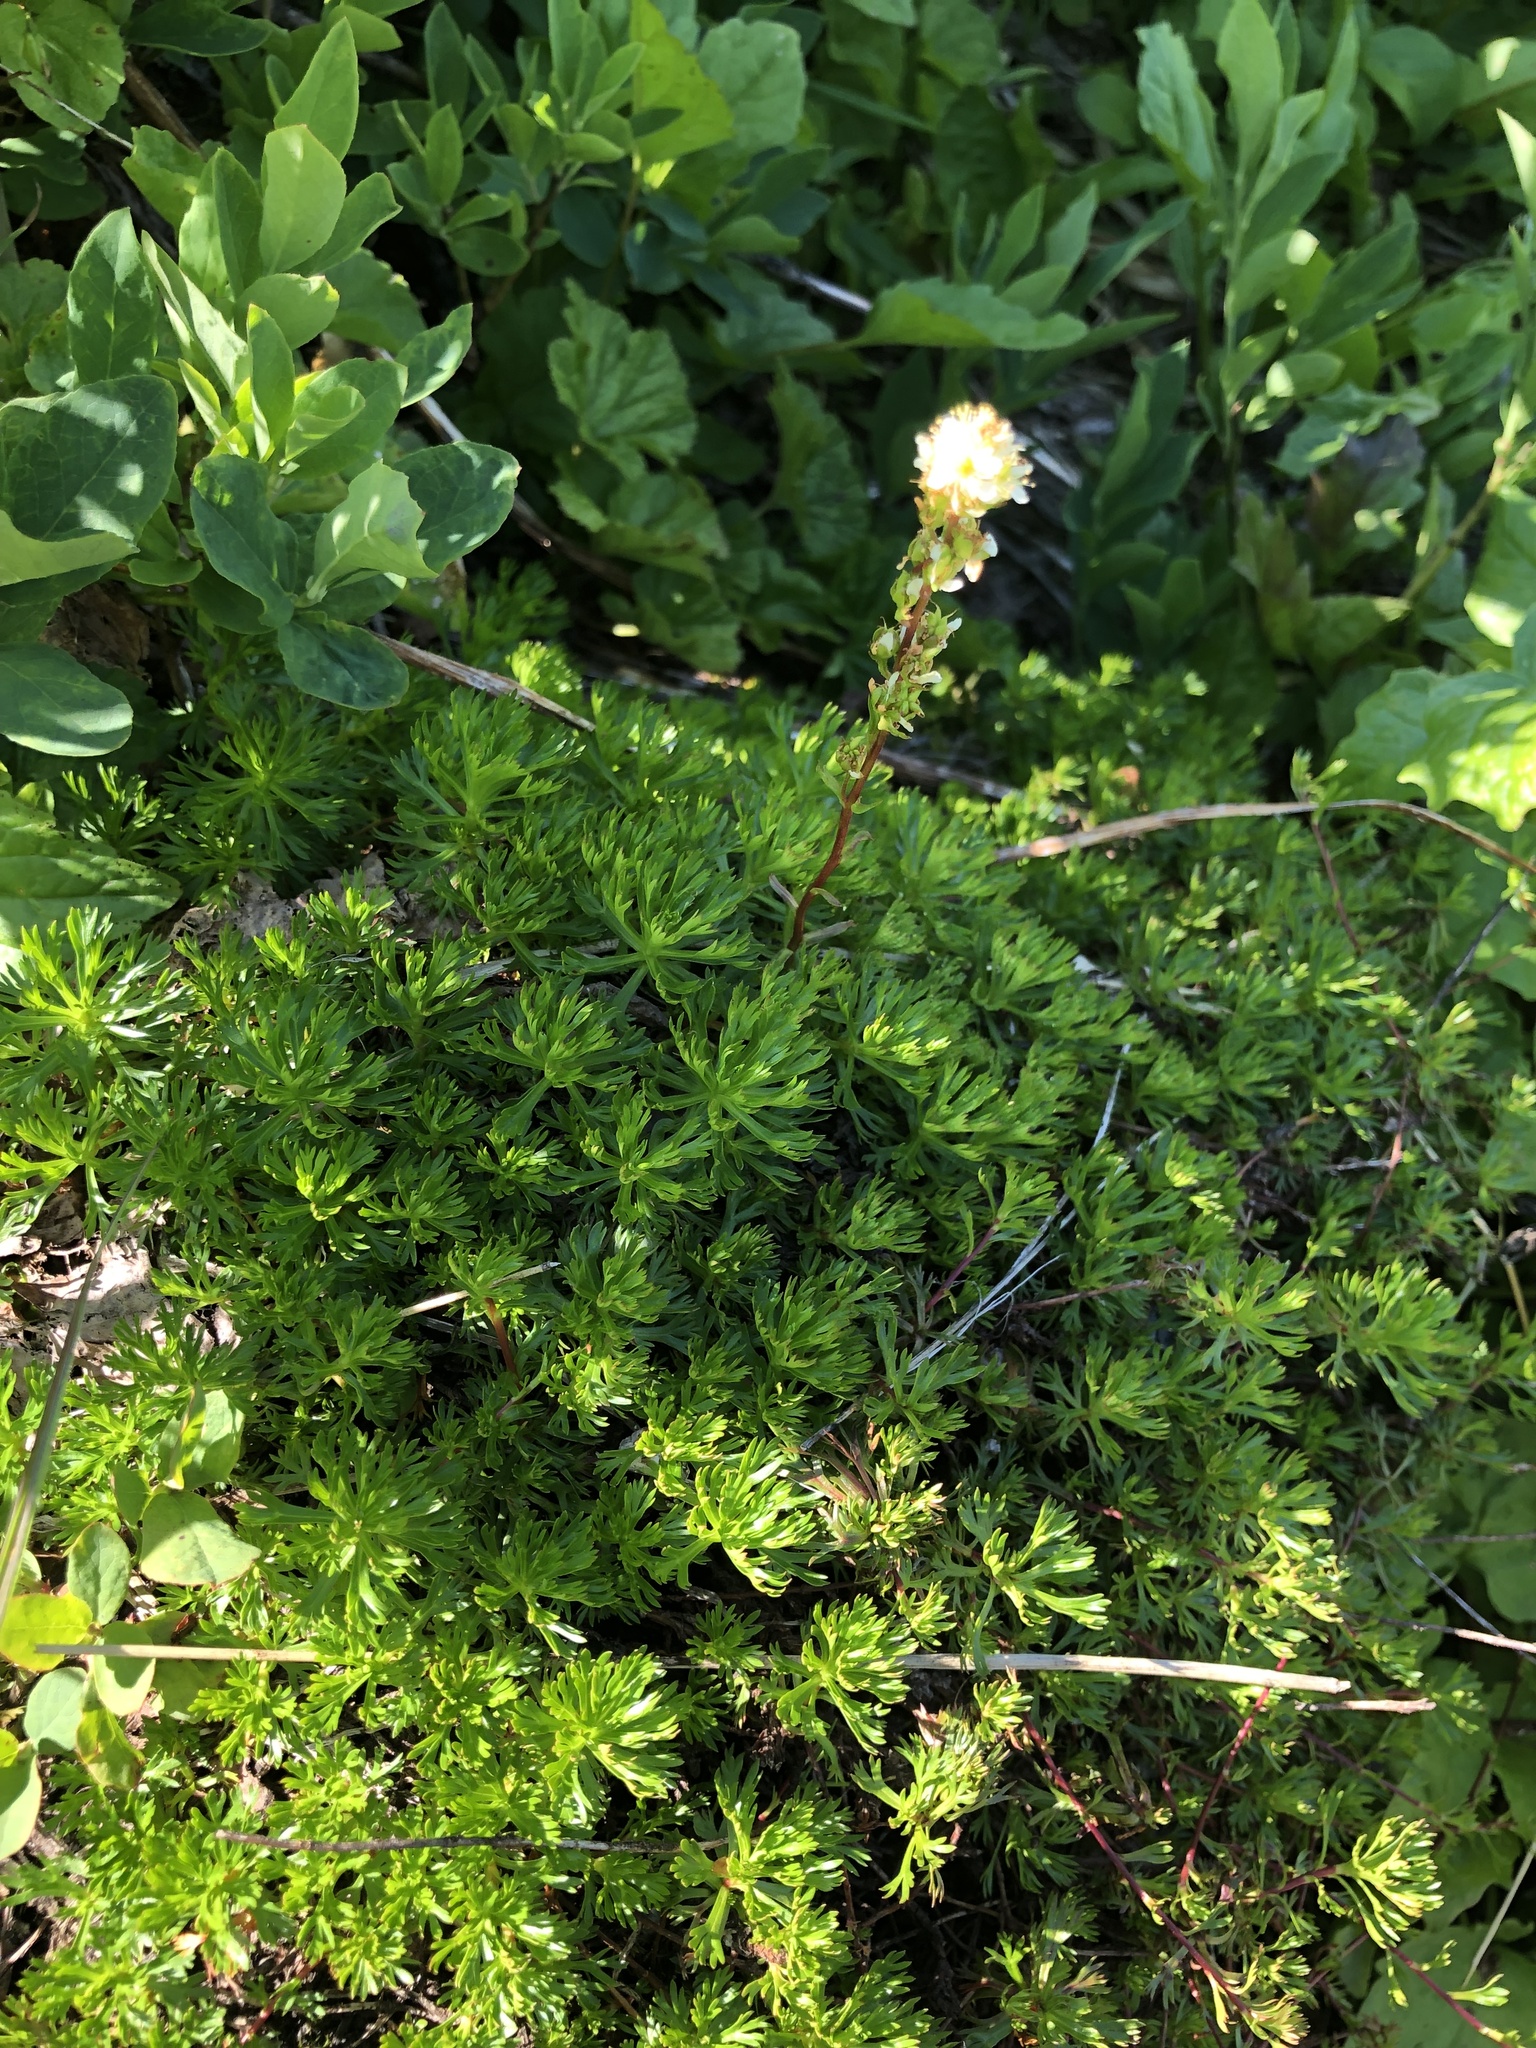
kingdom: Plantae
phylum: Tracheophyta
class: Magnoliopsida
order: Rosales
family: Rosaceae
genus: Luetkea
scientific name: Luetkea pectinata
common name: Partridgefoot
